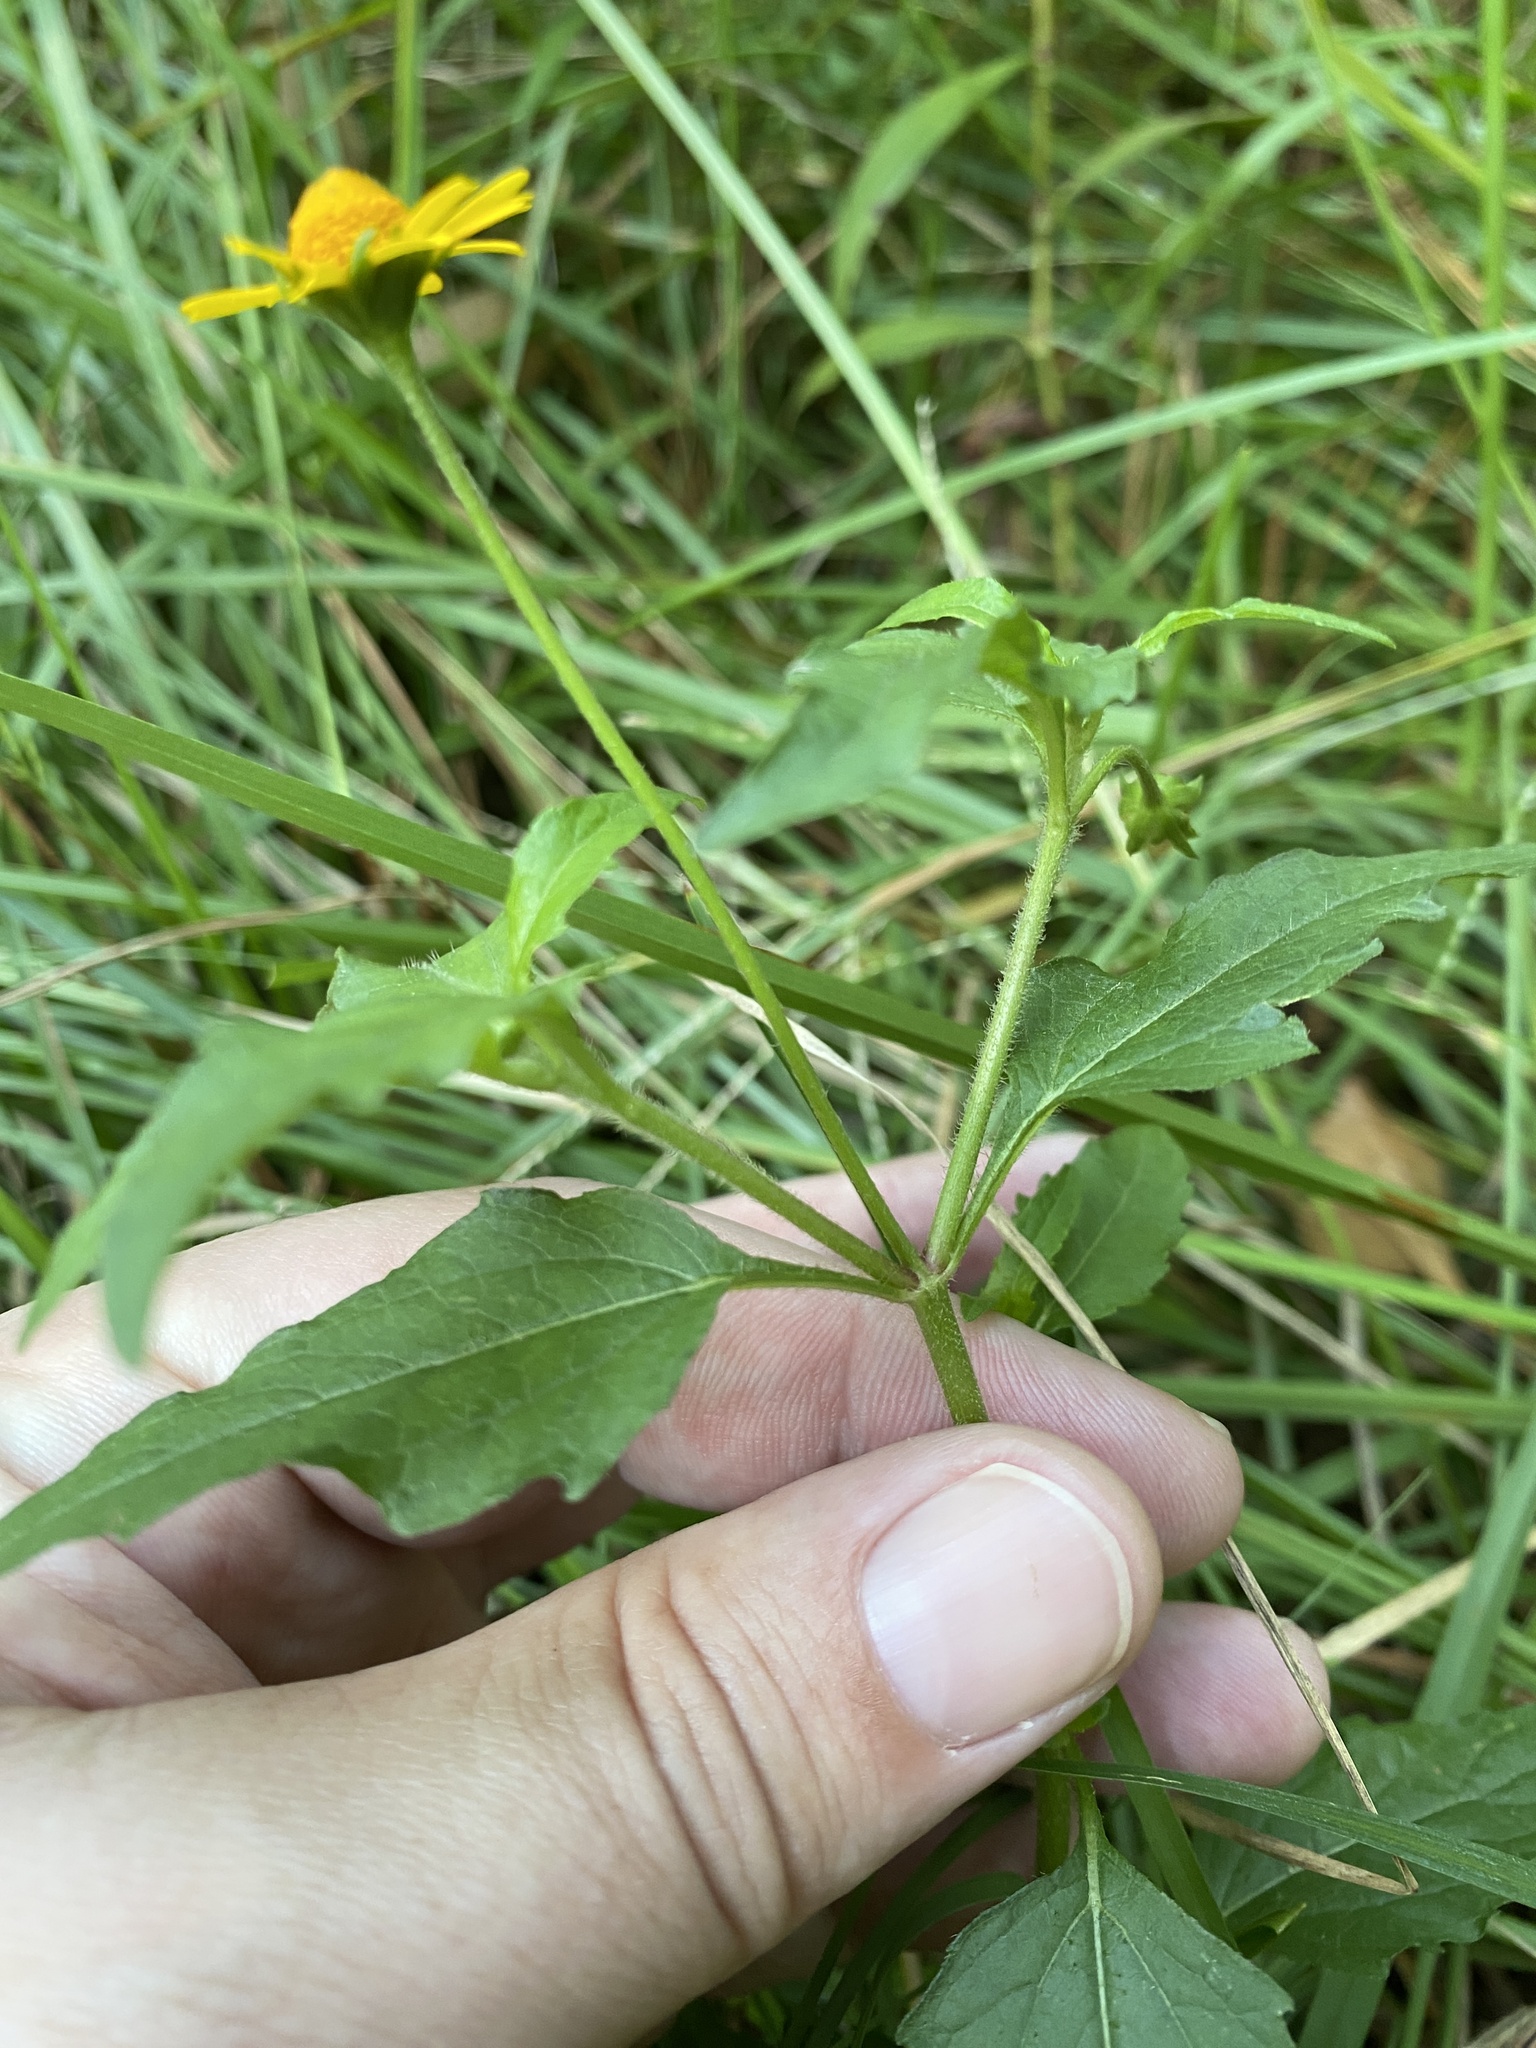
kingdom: Plantae
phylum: Tracheophyta
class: Magnoliopsida
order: Asterales
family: Asteraceae
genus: Acmella
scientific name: Acmella repens
